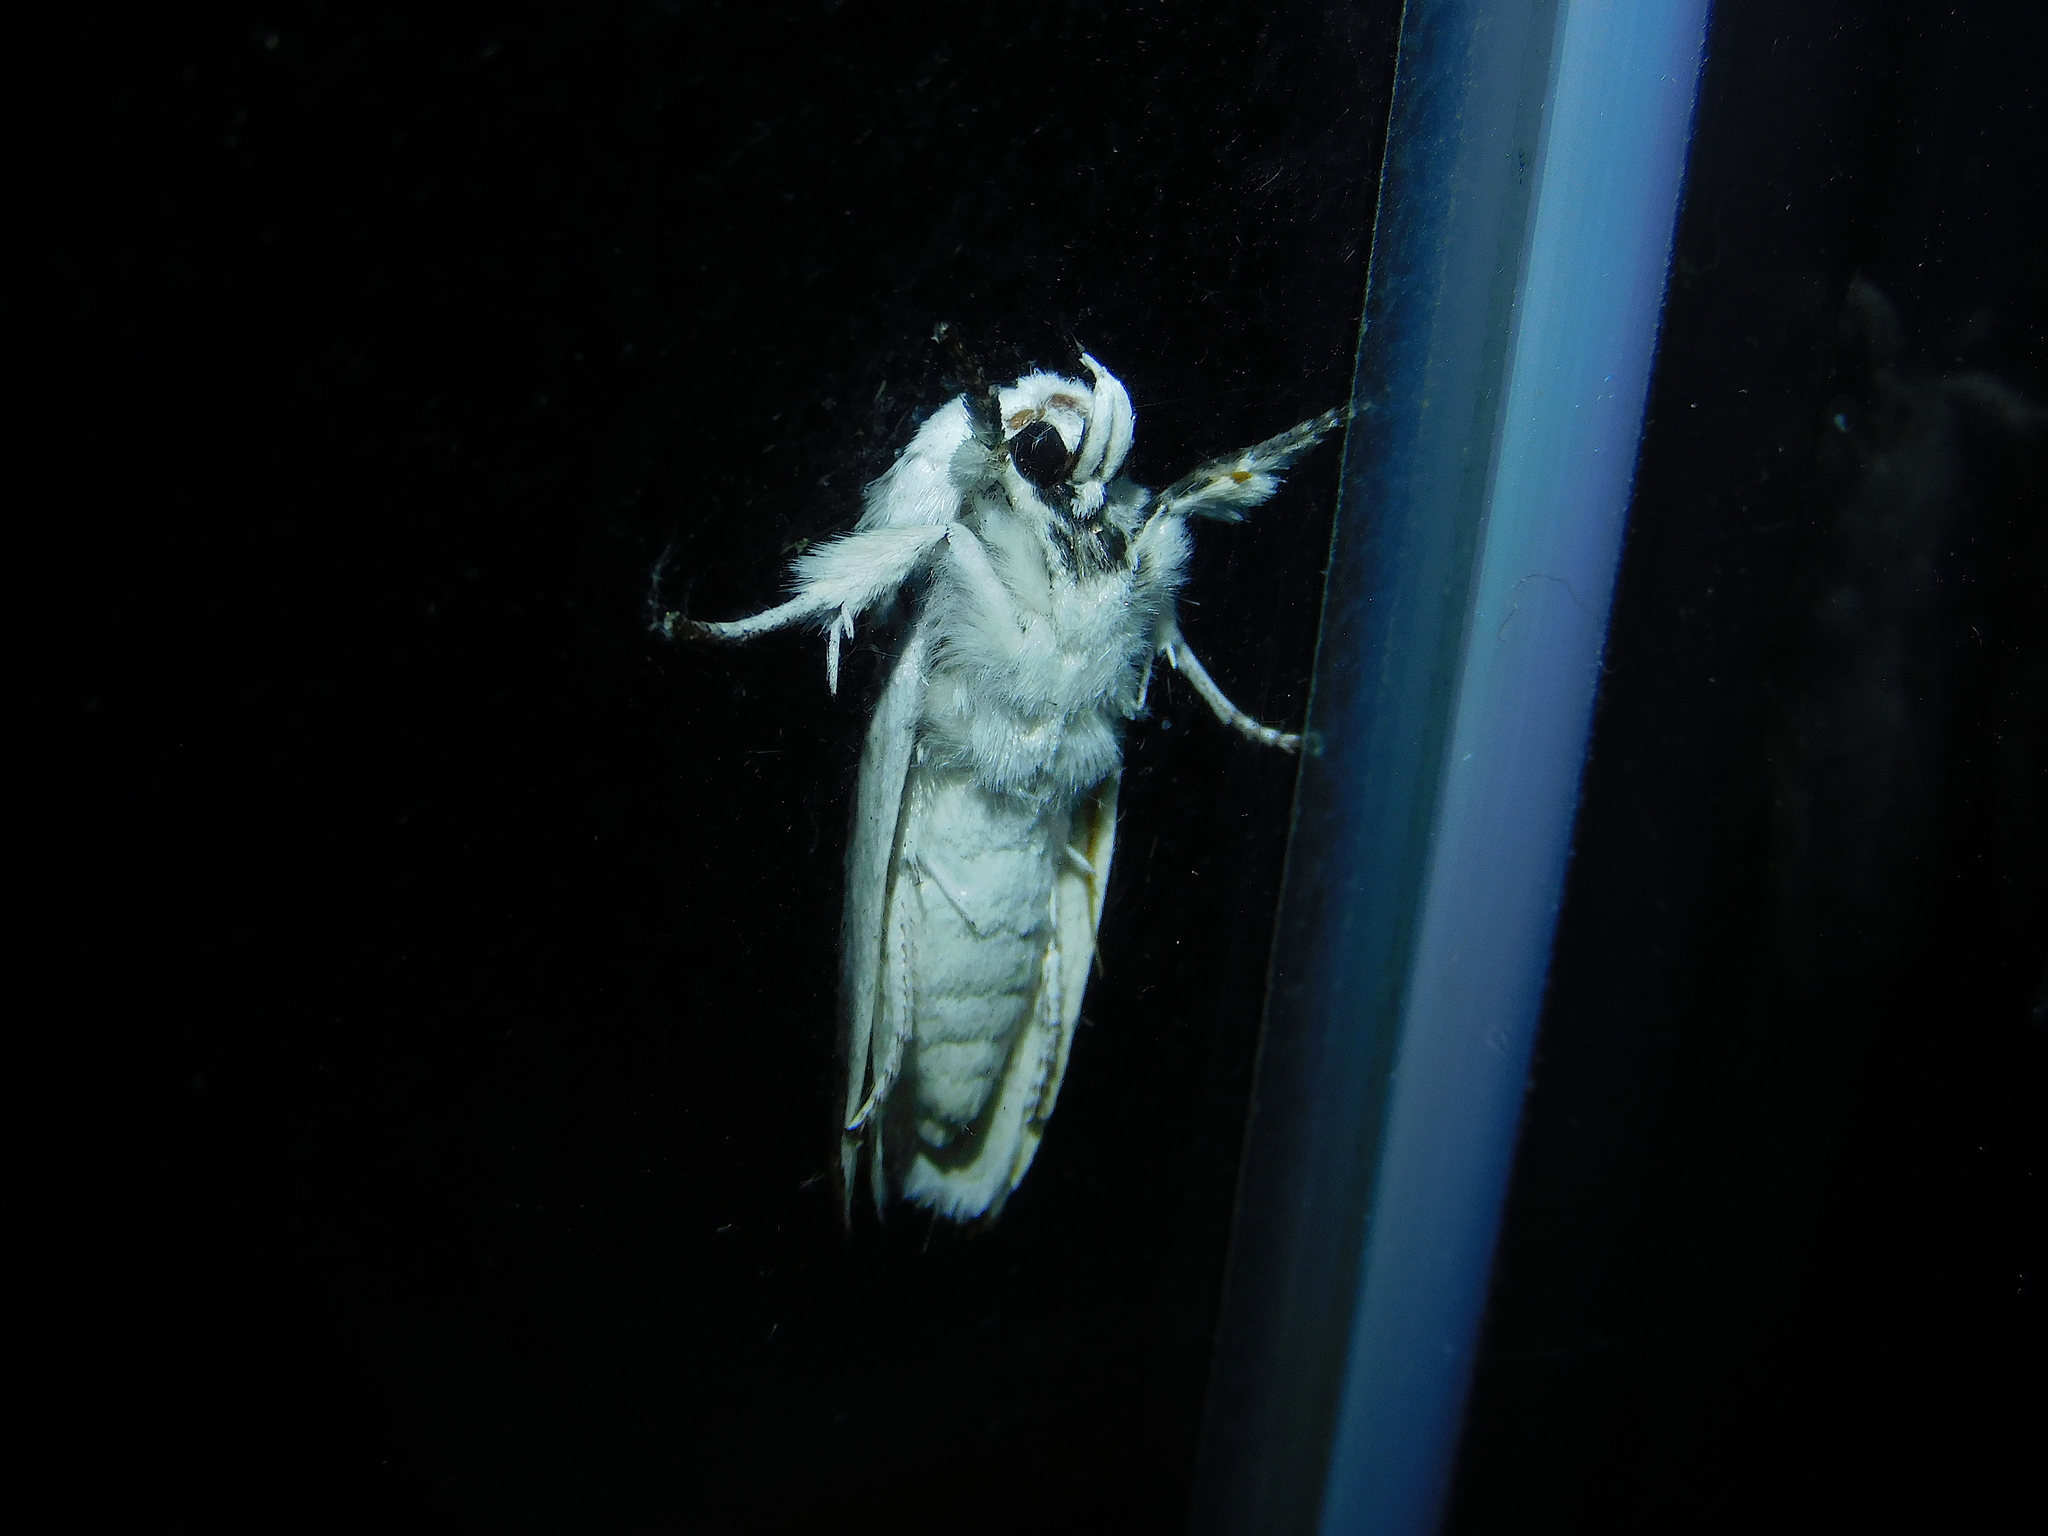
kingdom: Animalia
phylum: Arthropoda
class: Insecta
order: Lepidoptera
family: Xyloryctidae
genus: Cryptophasa
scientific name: Cryptophasa albacosta
